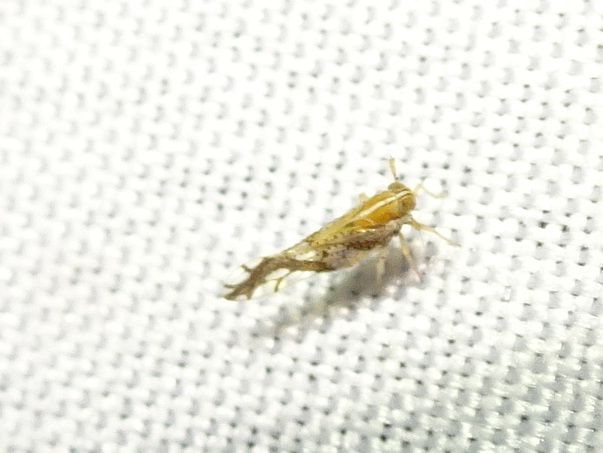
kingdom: Animalia
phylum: Arthropoda
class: Insecta
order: Hemiptera
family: Delphacidae
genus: Liburniella
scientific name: Liburniella ornata
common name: Ornate planthopper
